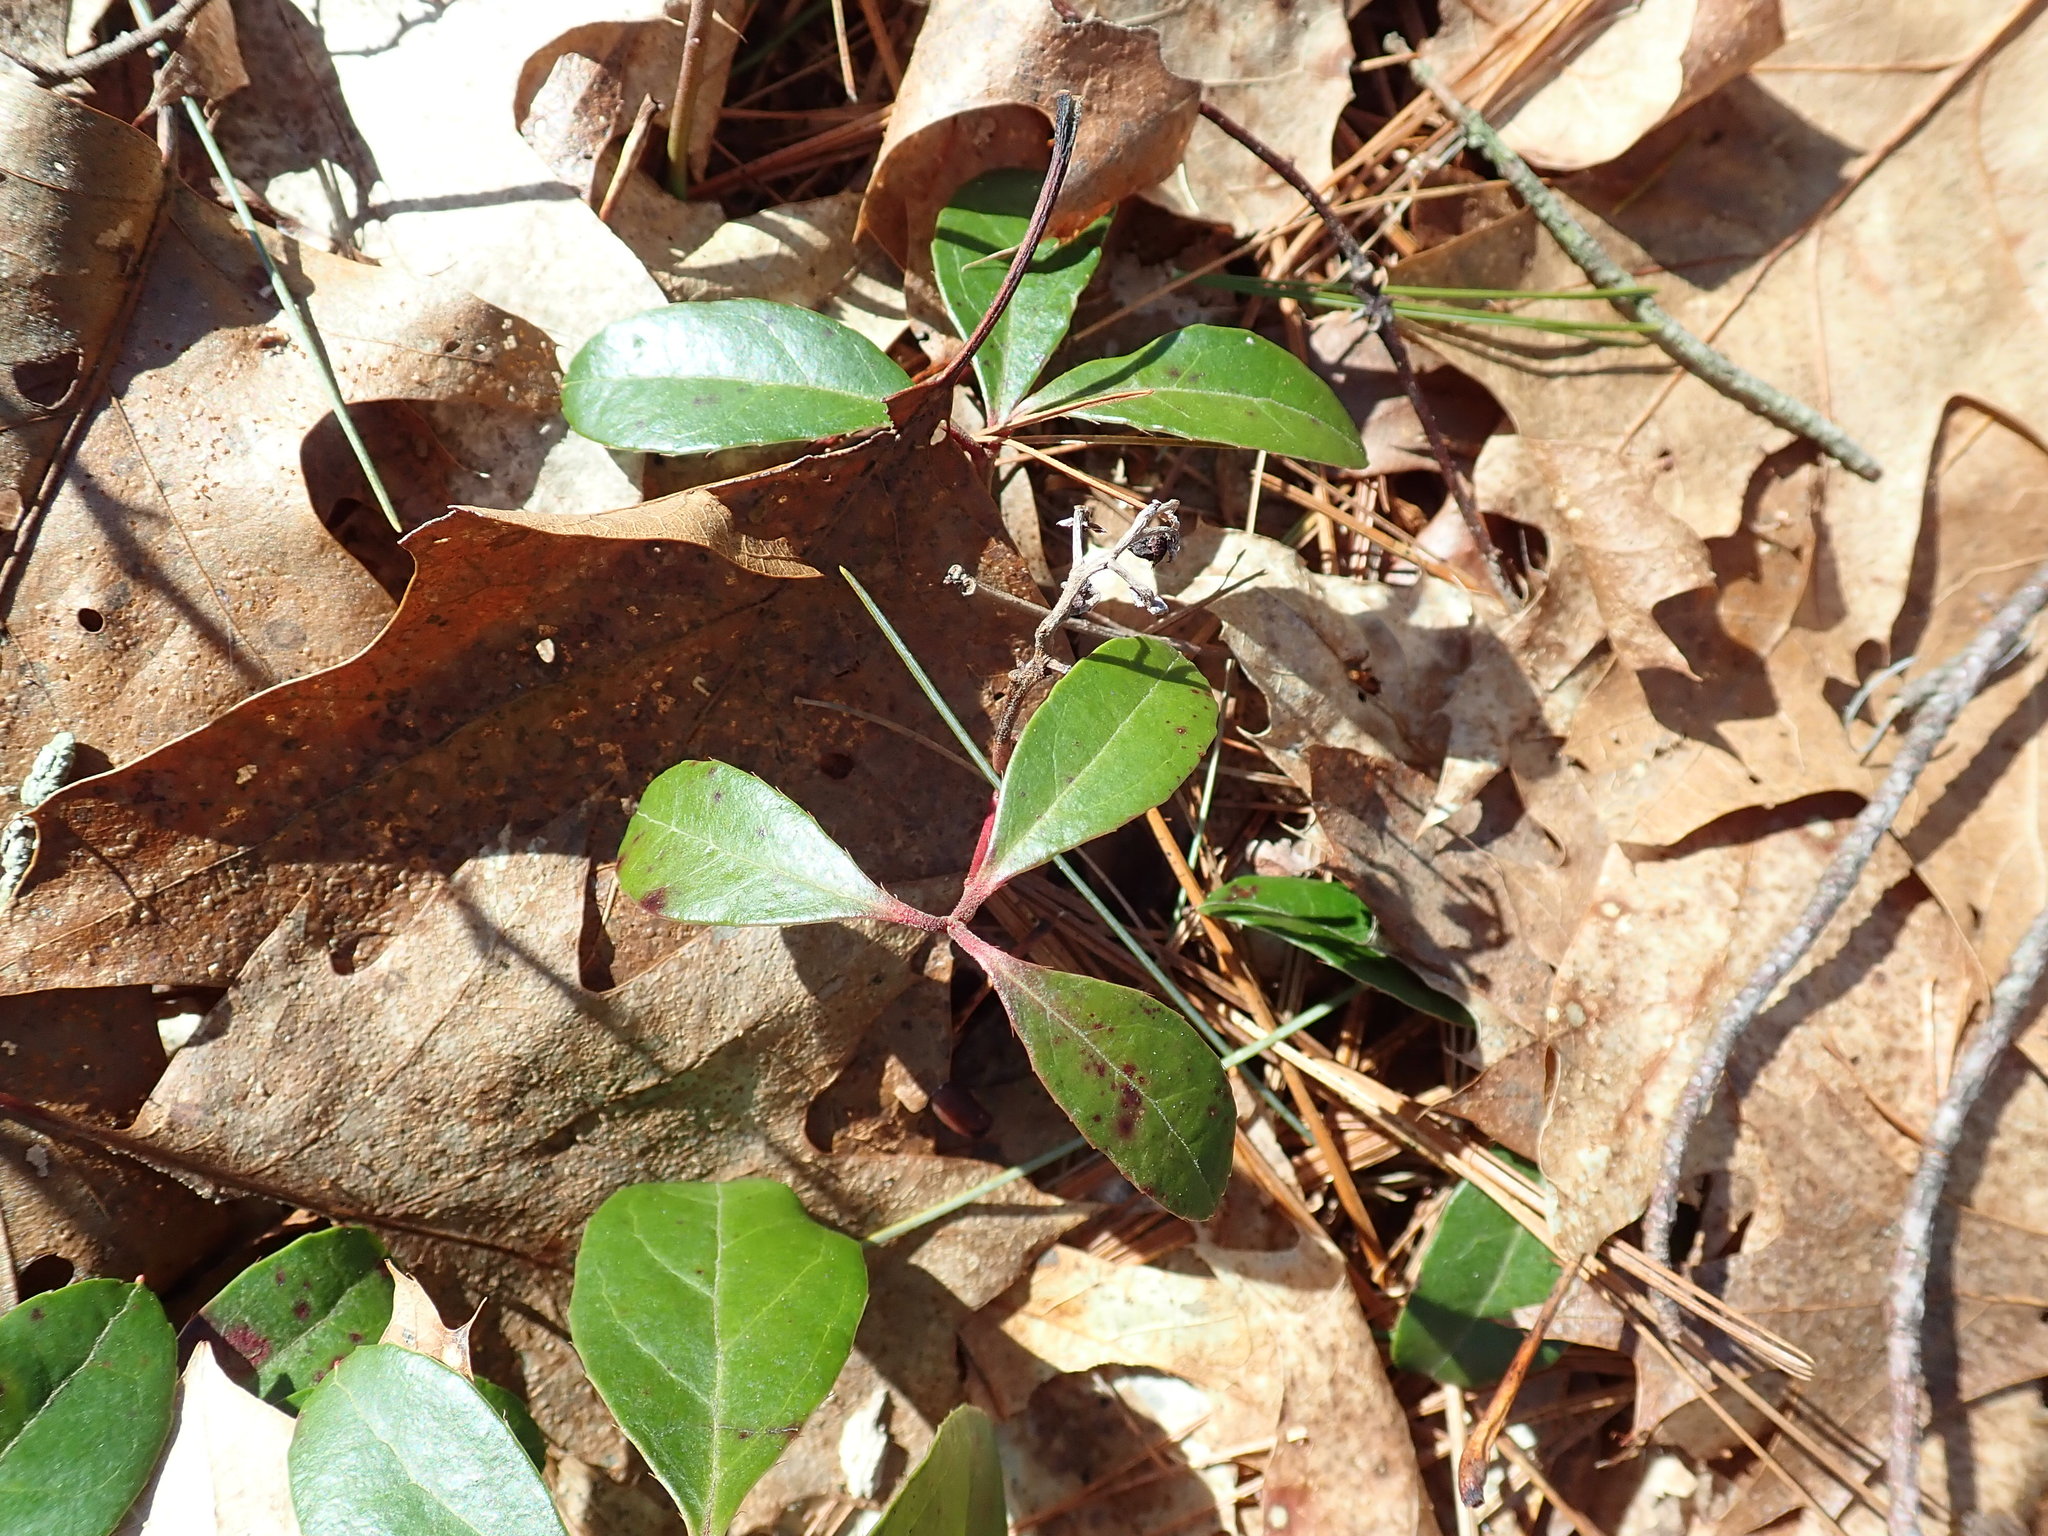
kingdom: Plantae
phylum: Tracheophyta
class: Magnoliopsida
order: Ericales
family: Ericaceae
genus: Gaultheria
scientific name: Gaultheria procumbens
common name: Checkerberry
